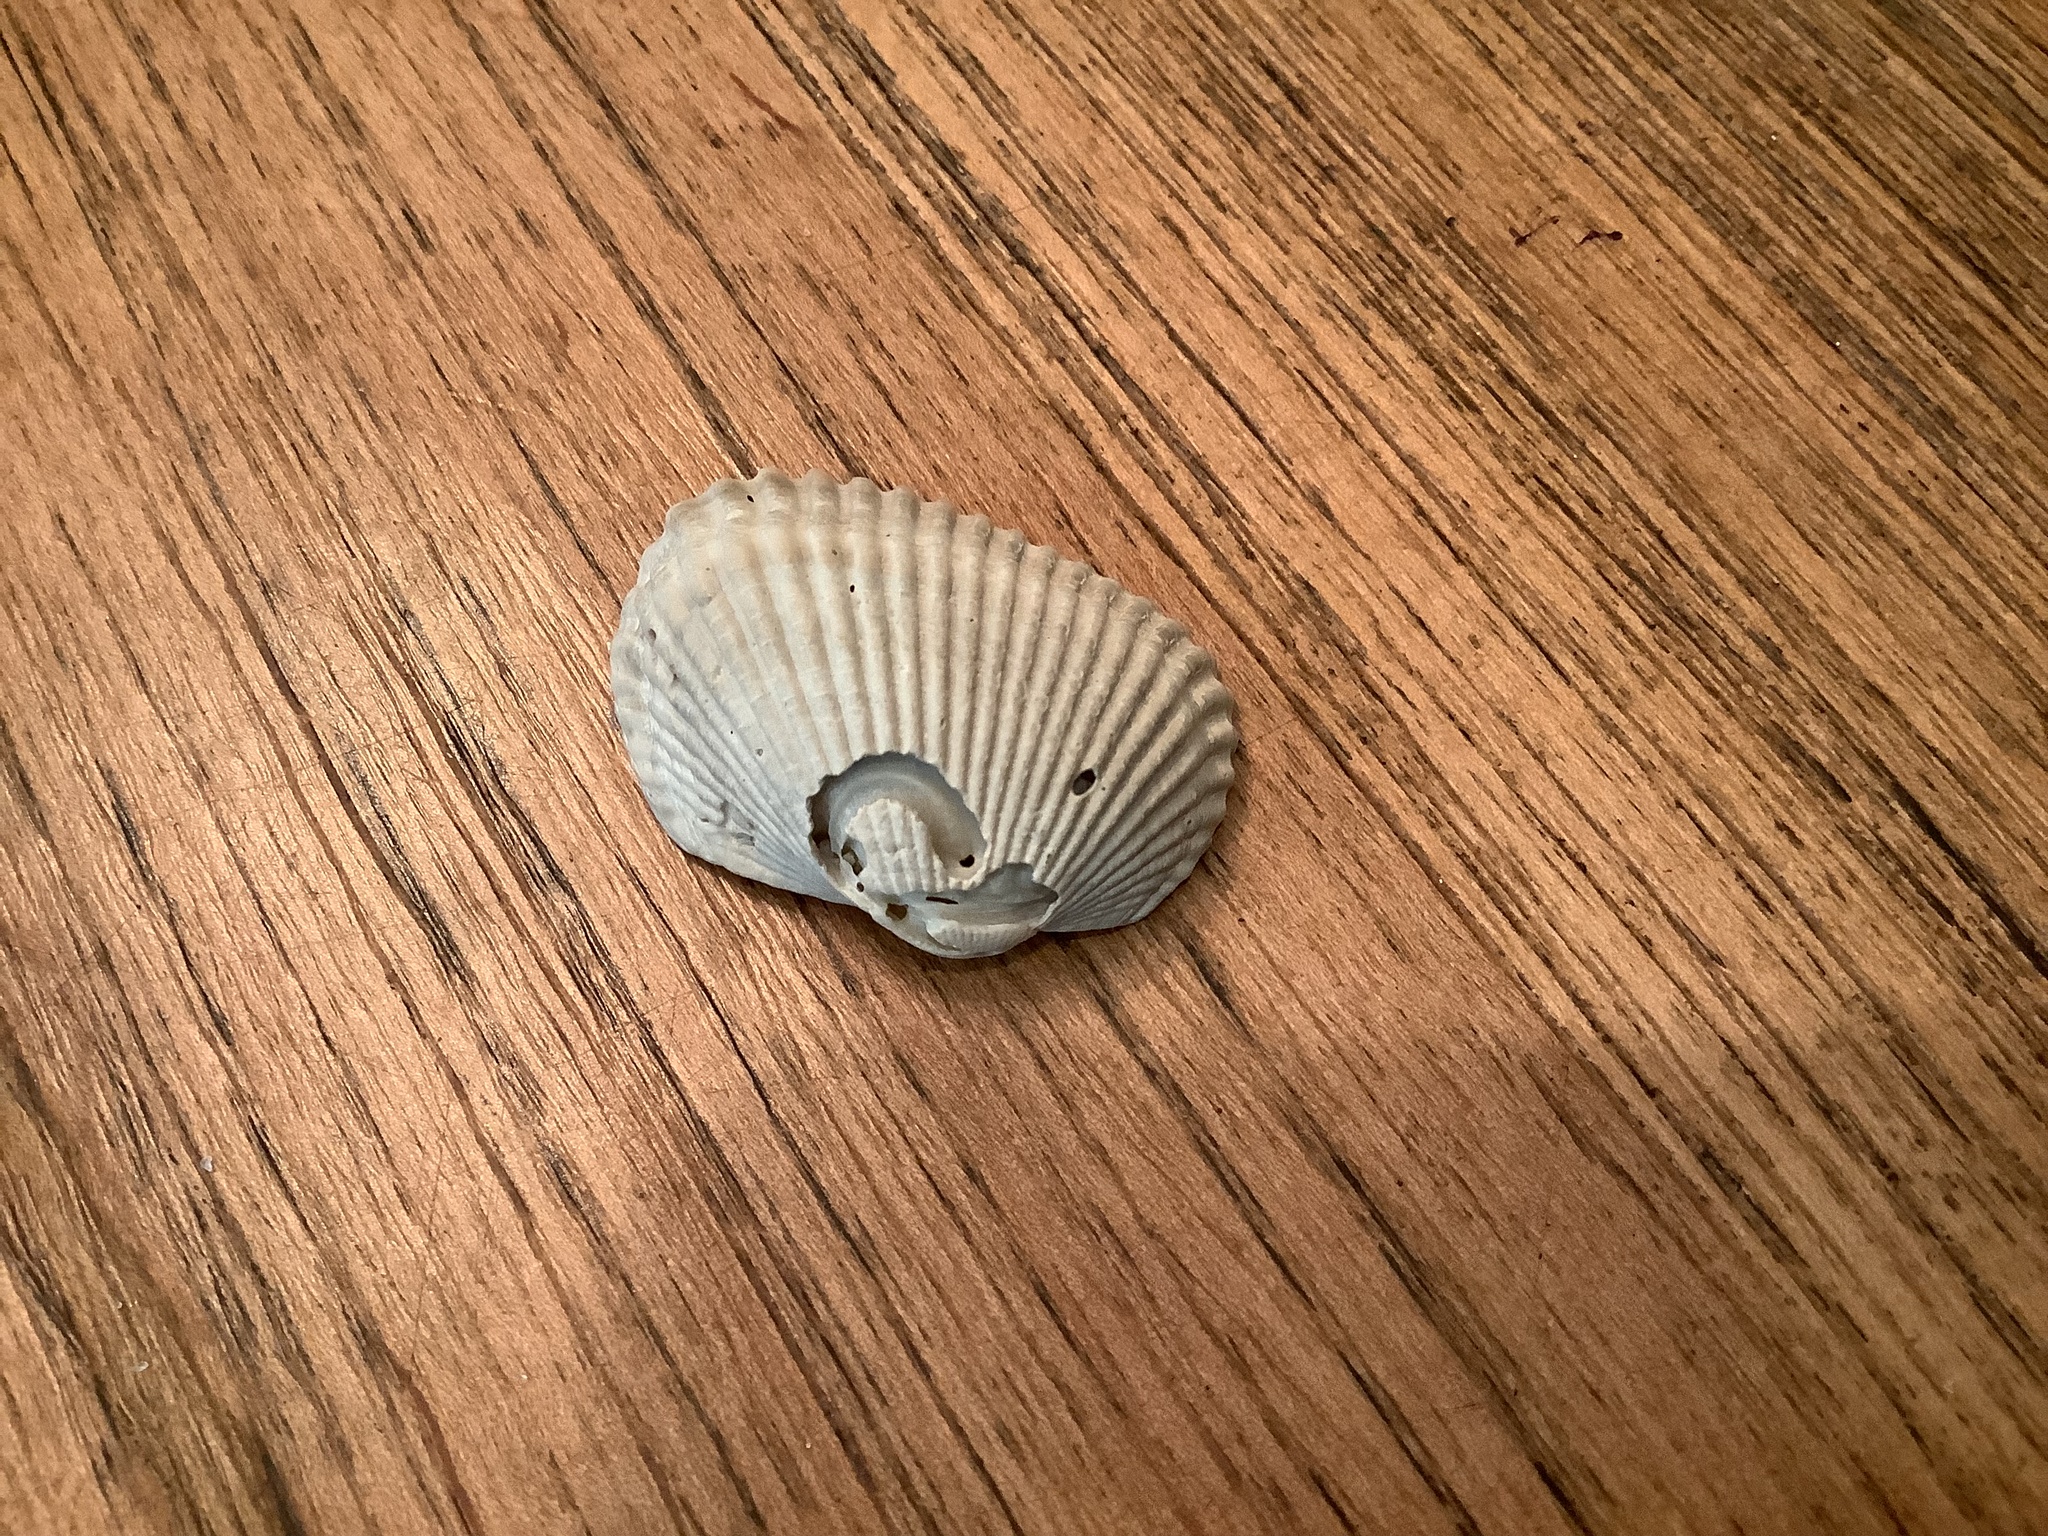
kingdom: Animalia
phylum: Mollusca
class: Bivalvia
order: Arcida
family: Arcidae
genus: Anadara
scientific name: Anadara transversa
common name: Transverse ark
